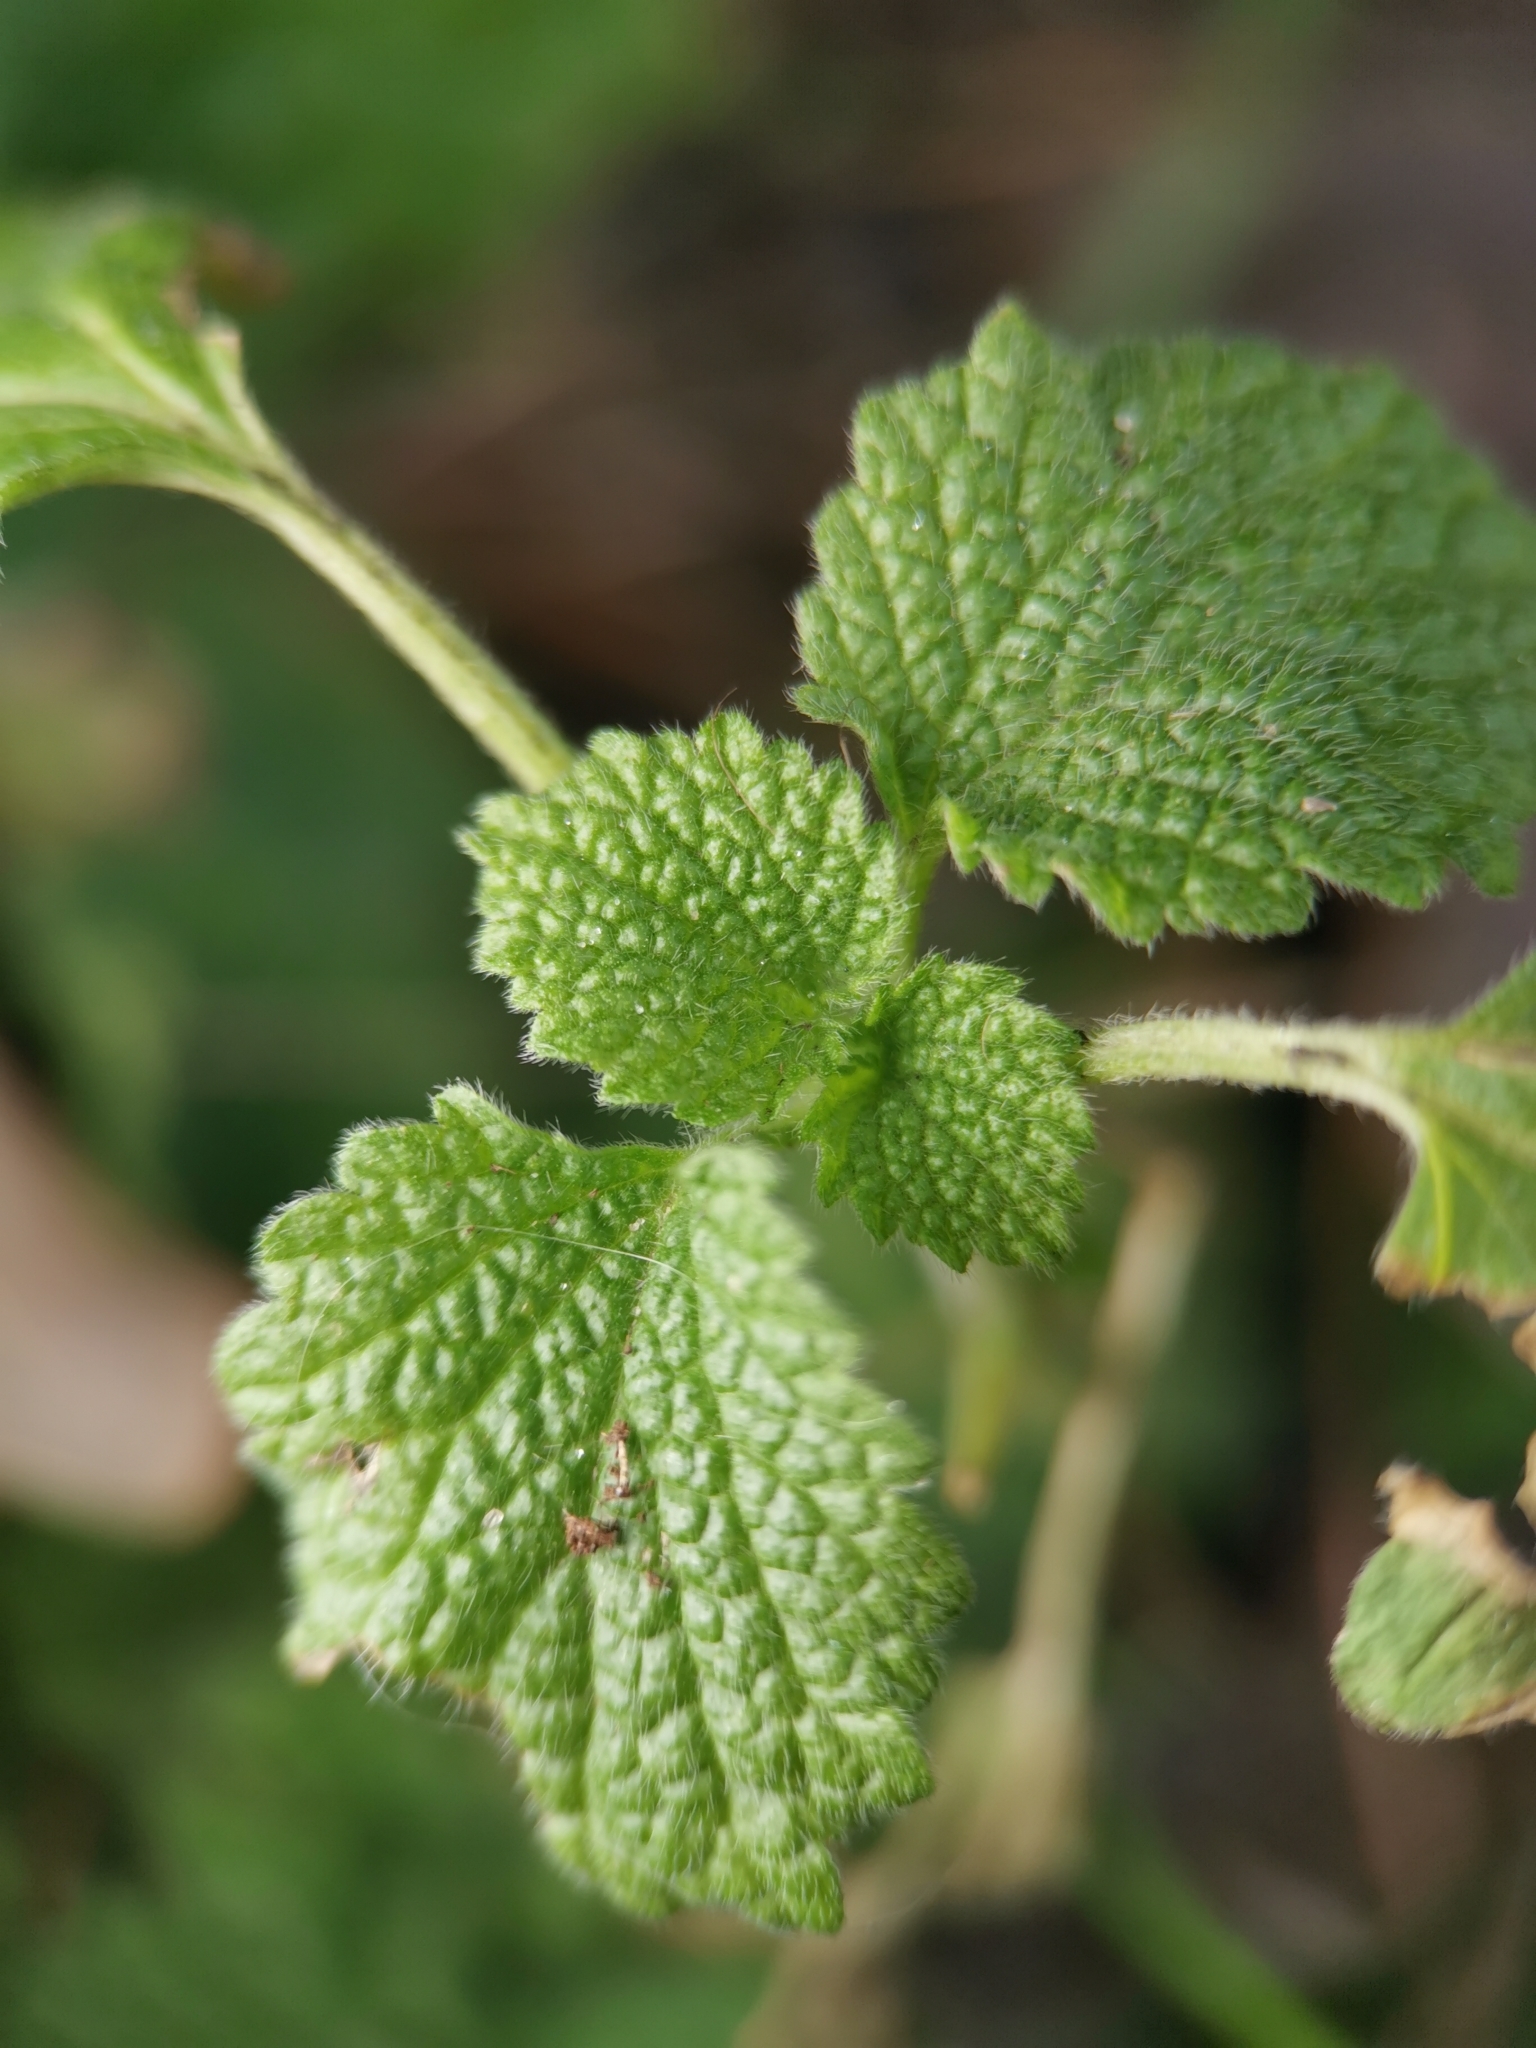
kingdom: Plantae
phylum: Tracheophyta
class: Magnoliopsida
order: Lamiales
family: Lamiaceae
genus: Ballota
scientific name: Ballota nigra
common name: Black horehound
